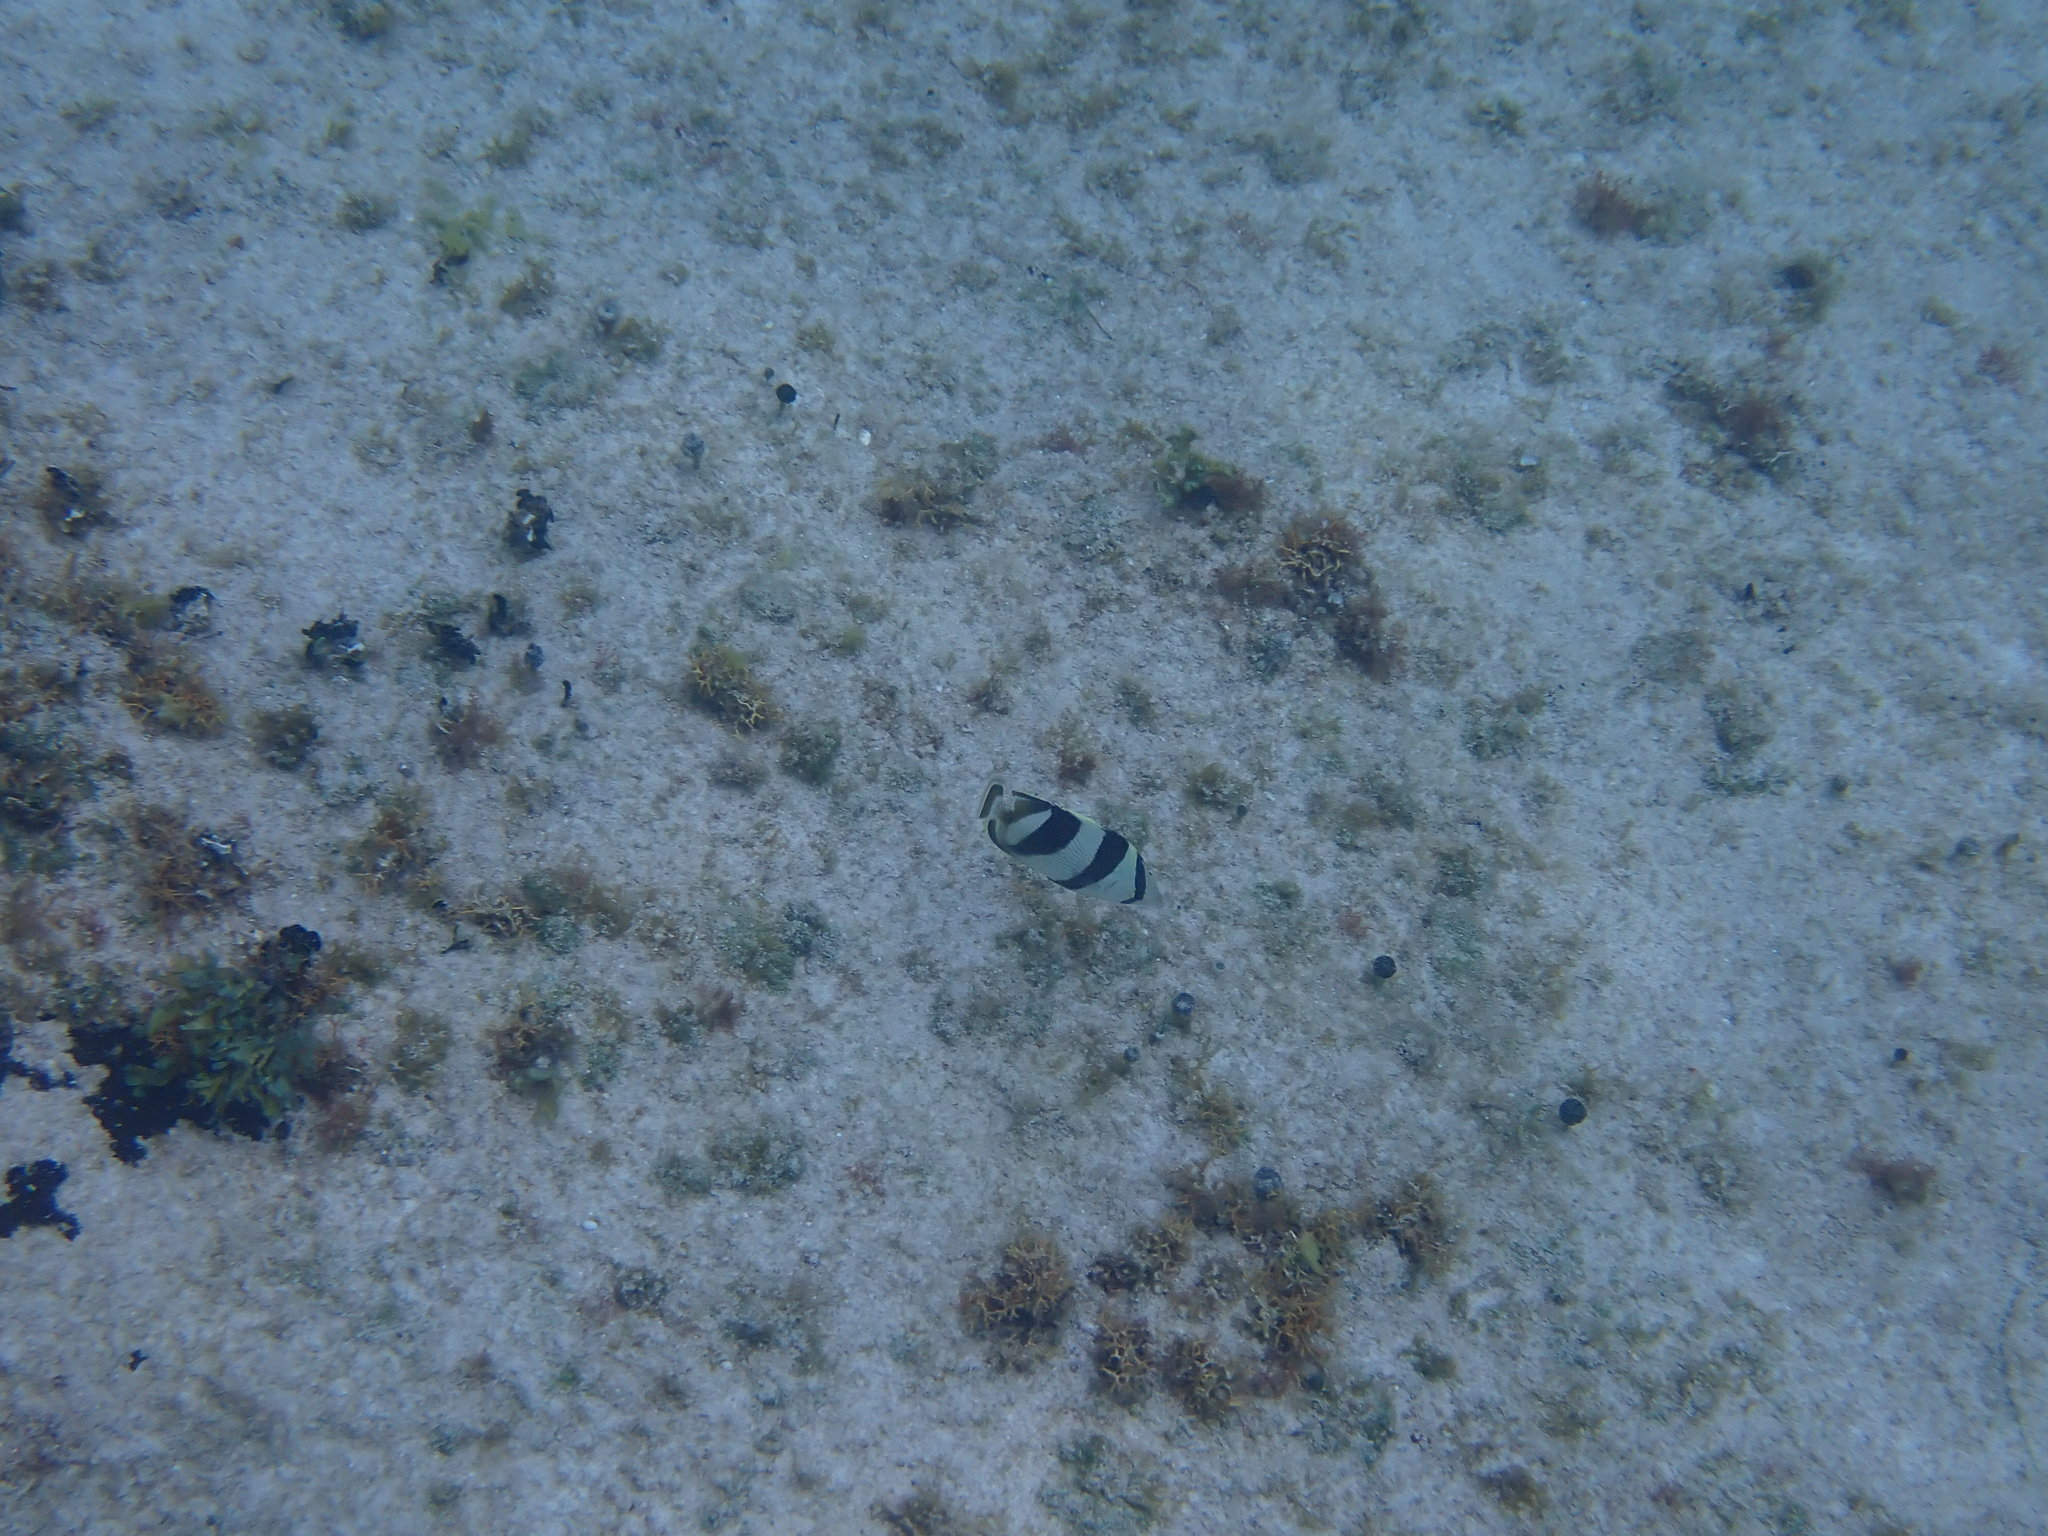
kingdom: Animalia
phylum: Chordata
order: Perciformes
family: Chaetodontidae
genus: Chaetodon
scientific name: Chaetodon striatus
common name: Banded butterflyfish
